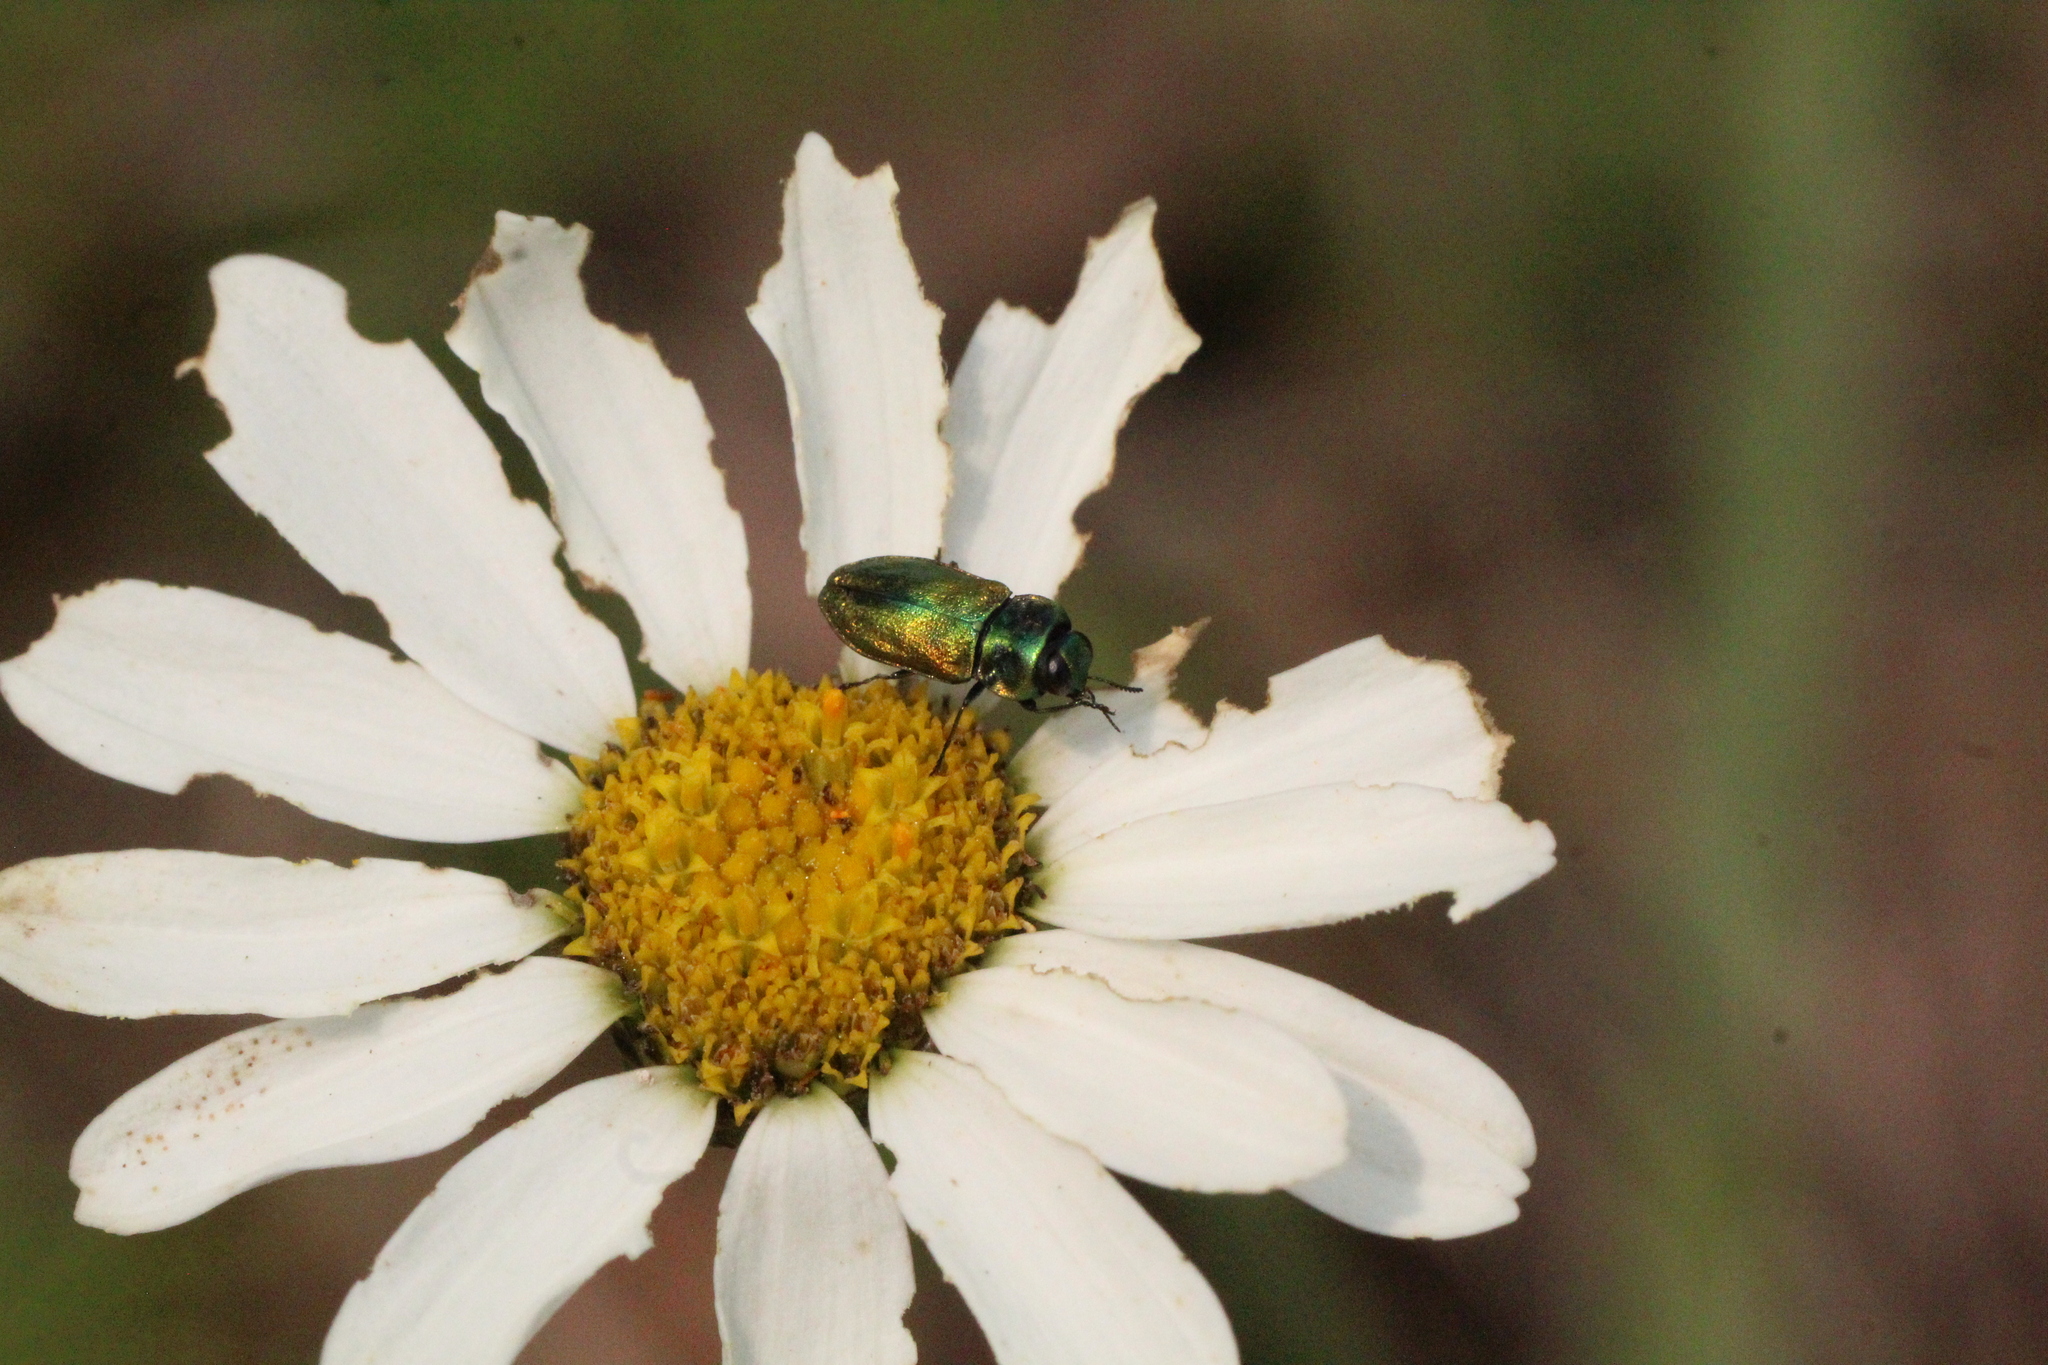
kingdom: Animalia
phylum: Arthropoda
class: Insecta
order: Coleoptera
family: Buprestidae
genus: Anthaxia
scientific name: Anthaxia fulgurans
